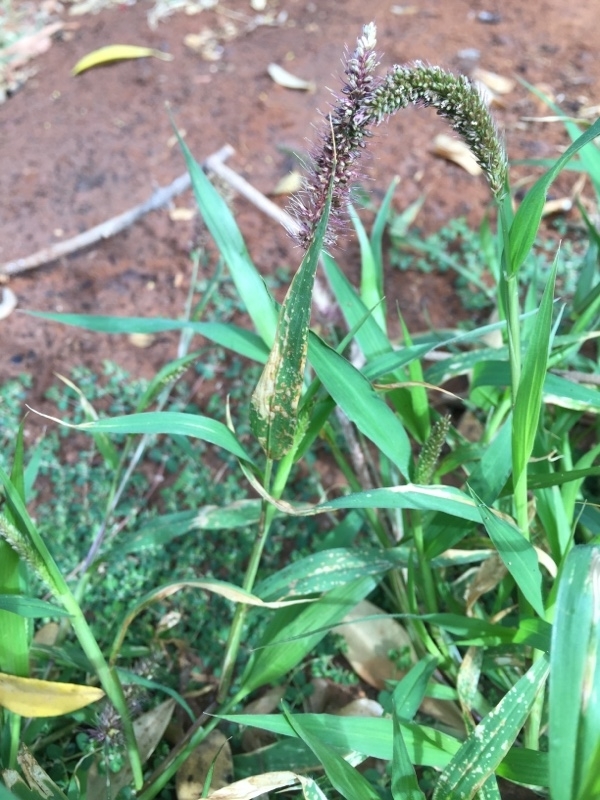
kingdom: Plantae
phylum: Tracheophyta
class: Liliopsida
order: Poales
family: Poaceae
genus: Setaria
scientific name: Setaria verticillata
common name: Hooked bristlegrass
